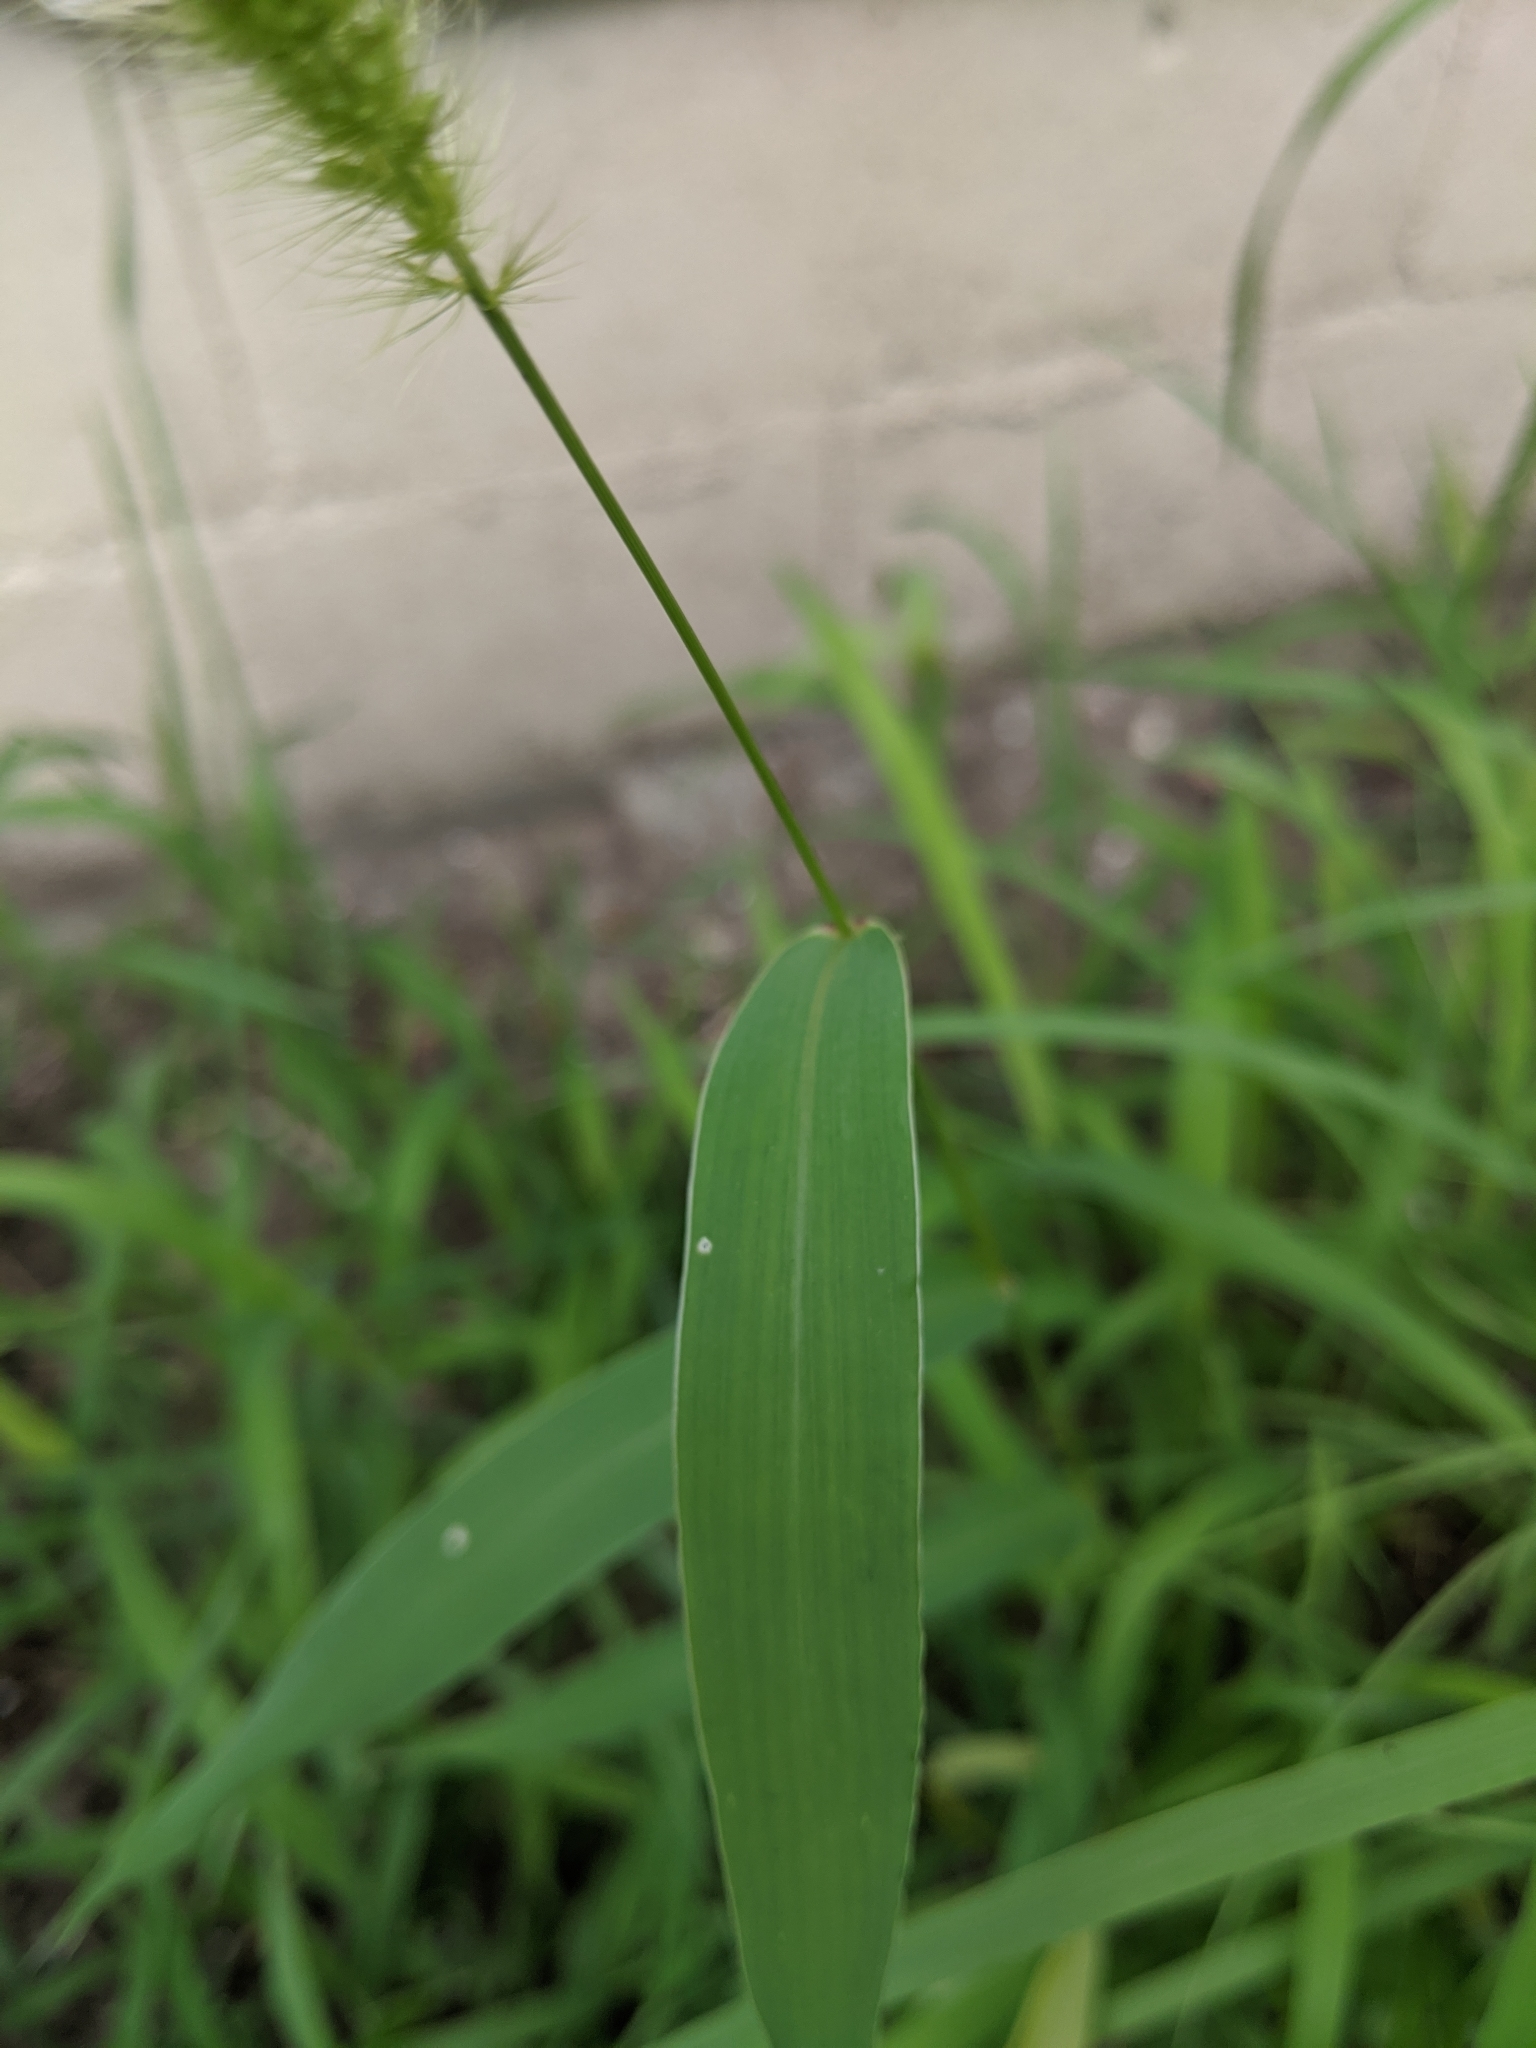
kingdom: Plantae
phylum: Tracheophyta
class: Liliopsida
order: Poales
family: Poaceae
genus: Setaria
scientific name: Setaria viridis
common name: Green bristlegrass
